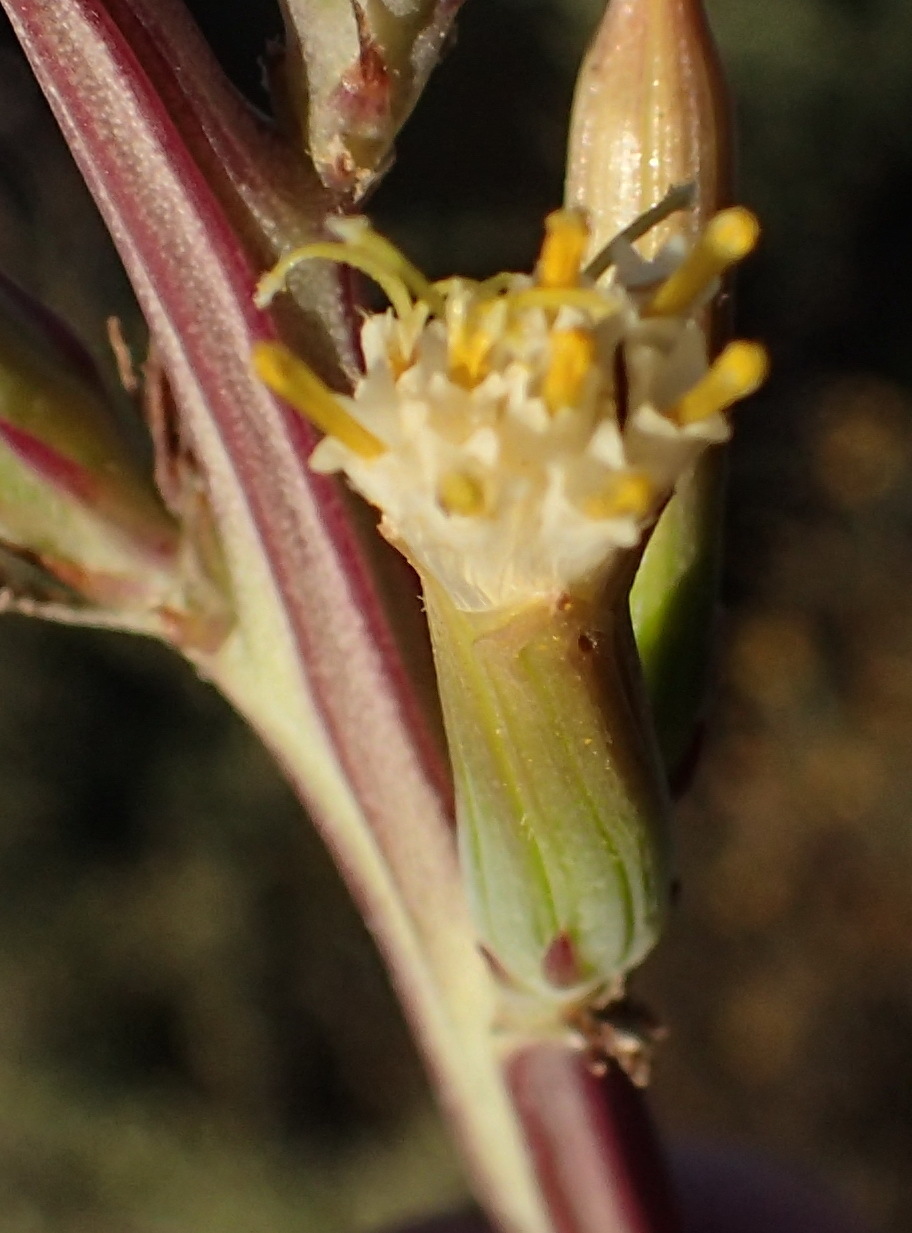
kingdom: Plantae
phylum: Tracheophyta
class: Magnoliopsida
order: Asterales
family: Asteraceae
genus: Curio
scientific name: Curio avasimontanus
